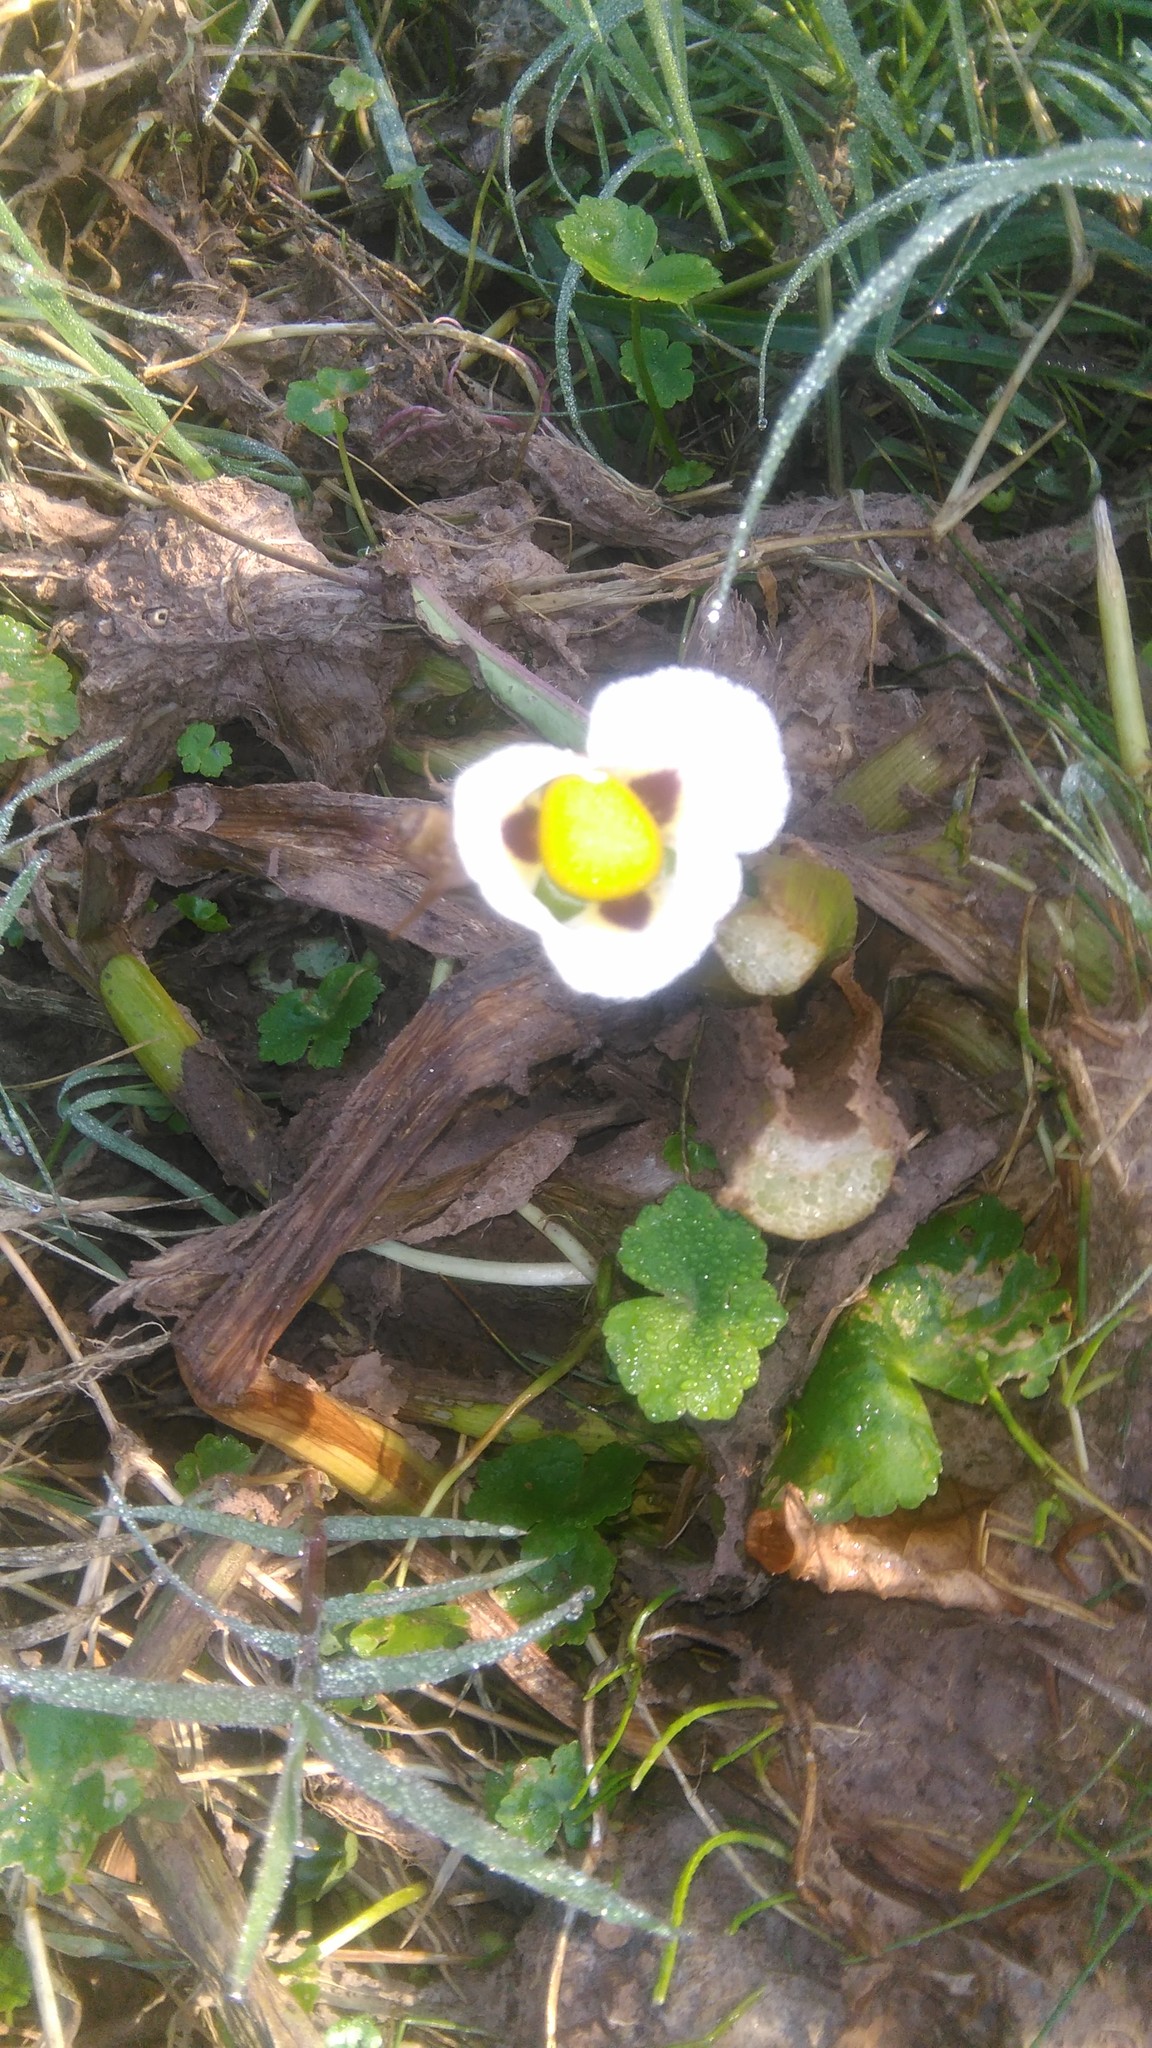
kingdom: Plantae
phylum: Tracheophyta
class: Liliopsida
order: Alismatales
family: Alismataceae
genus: Sagittaria
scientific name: Sagittaria montevidensis
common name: Giant arrowhead
